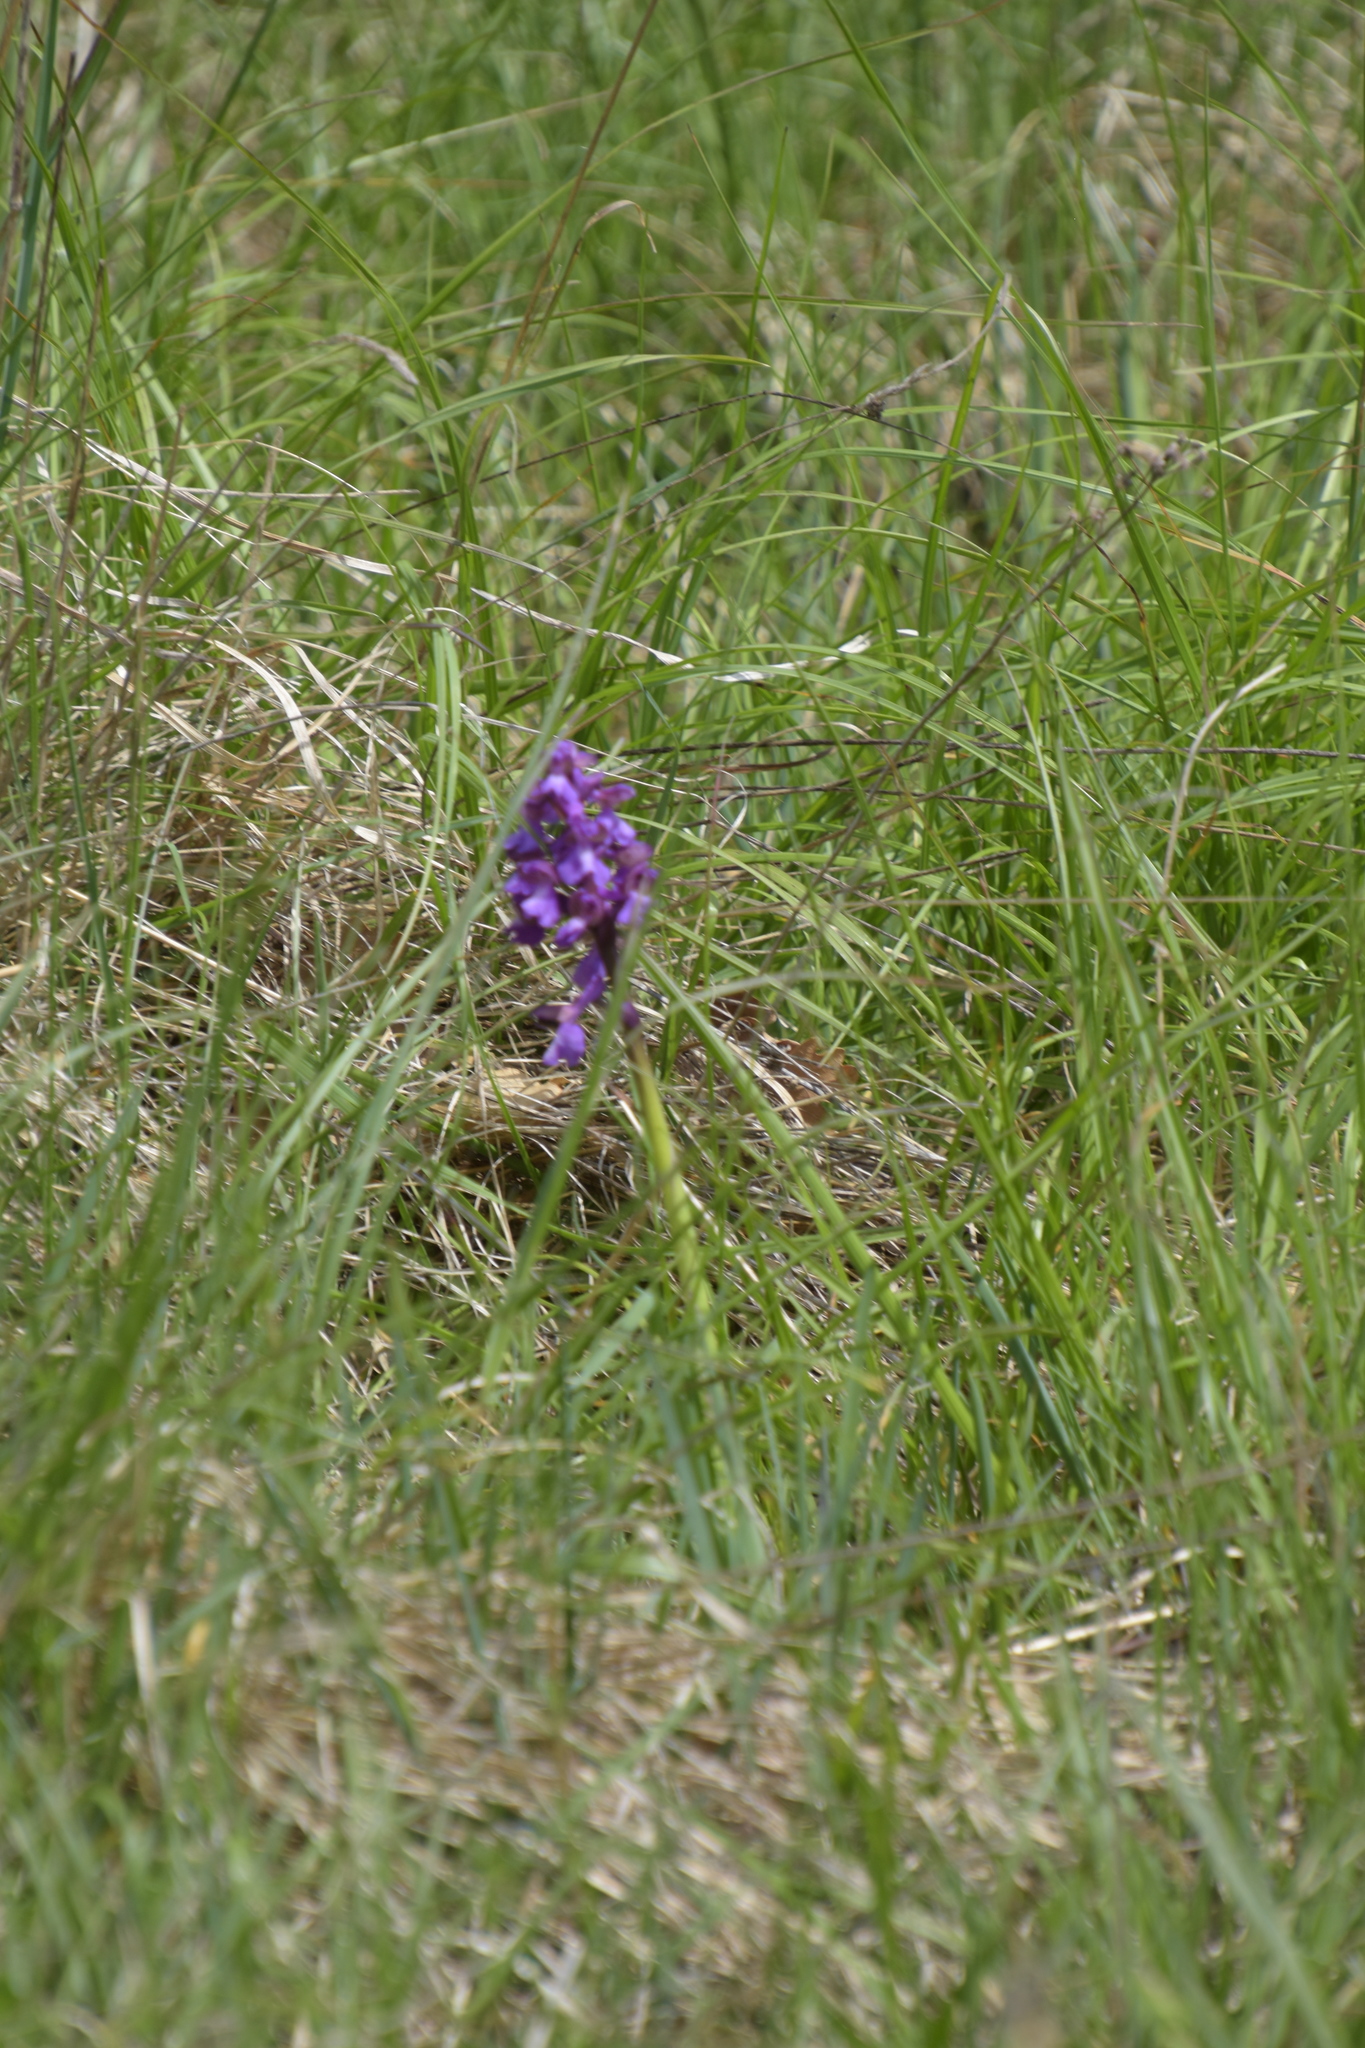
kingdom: Plantae
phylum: Tracheophyta
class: Liliopsida
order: Asparagales
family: Orchidaceae
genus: Anacamptis
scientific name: Anacamptis morio
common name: Green-winged orchid
